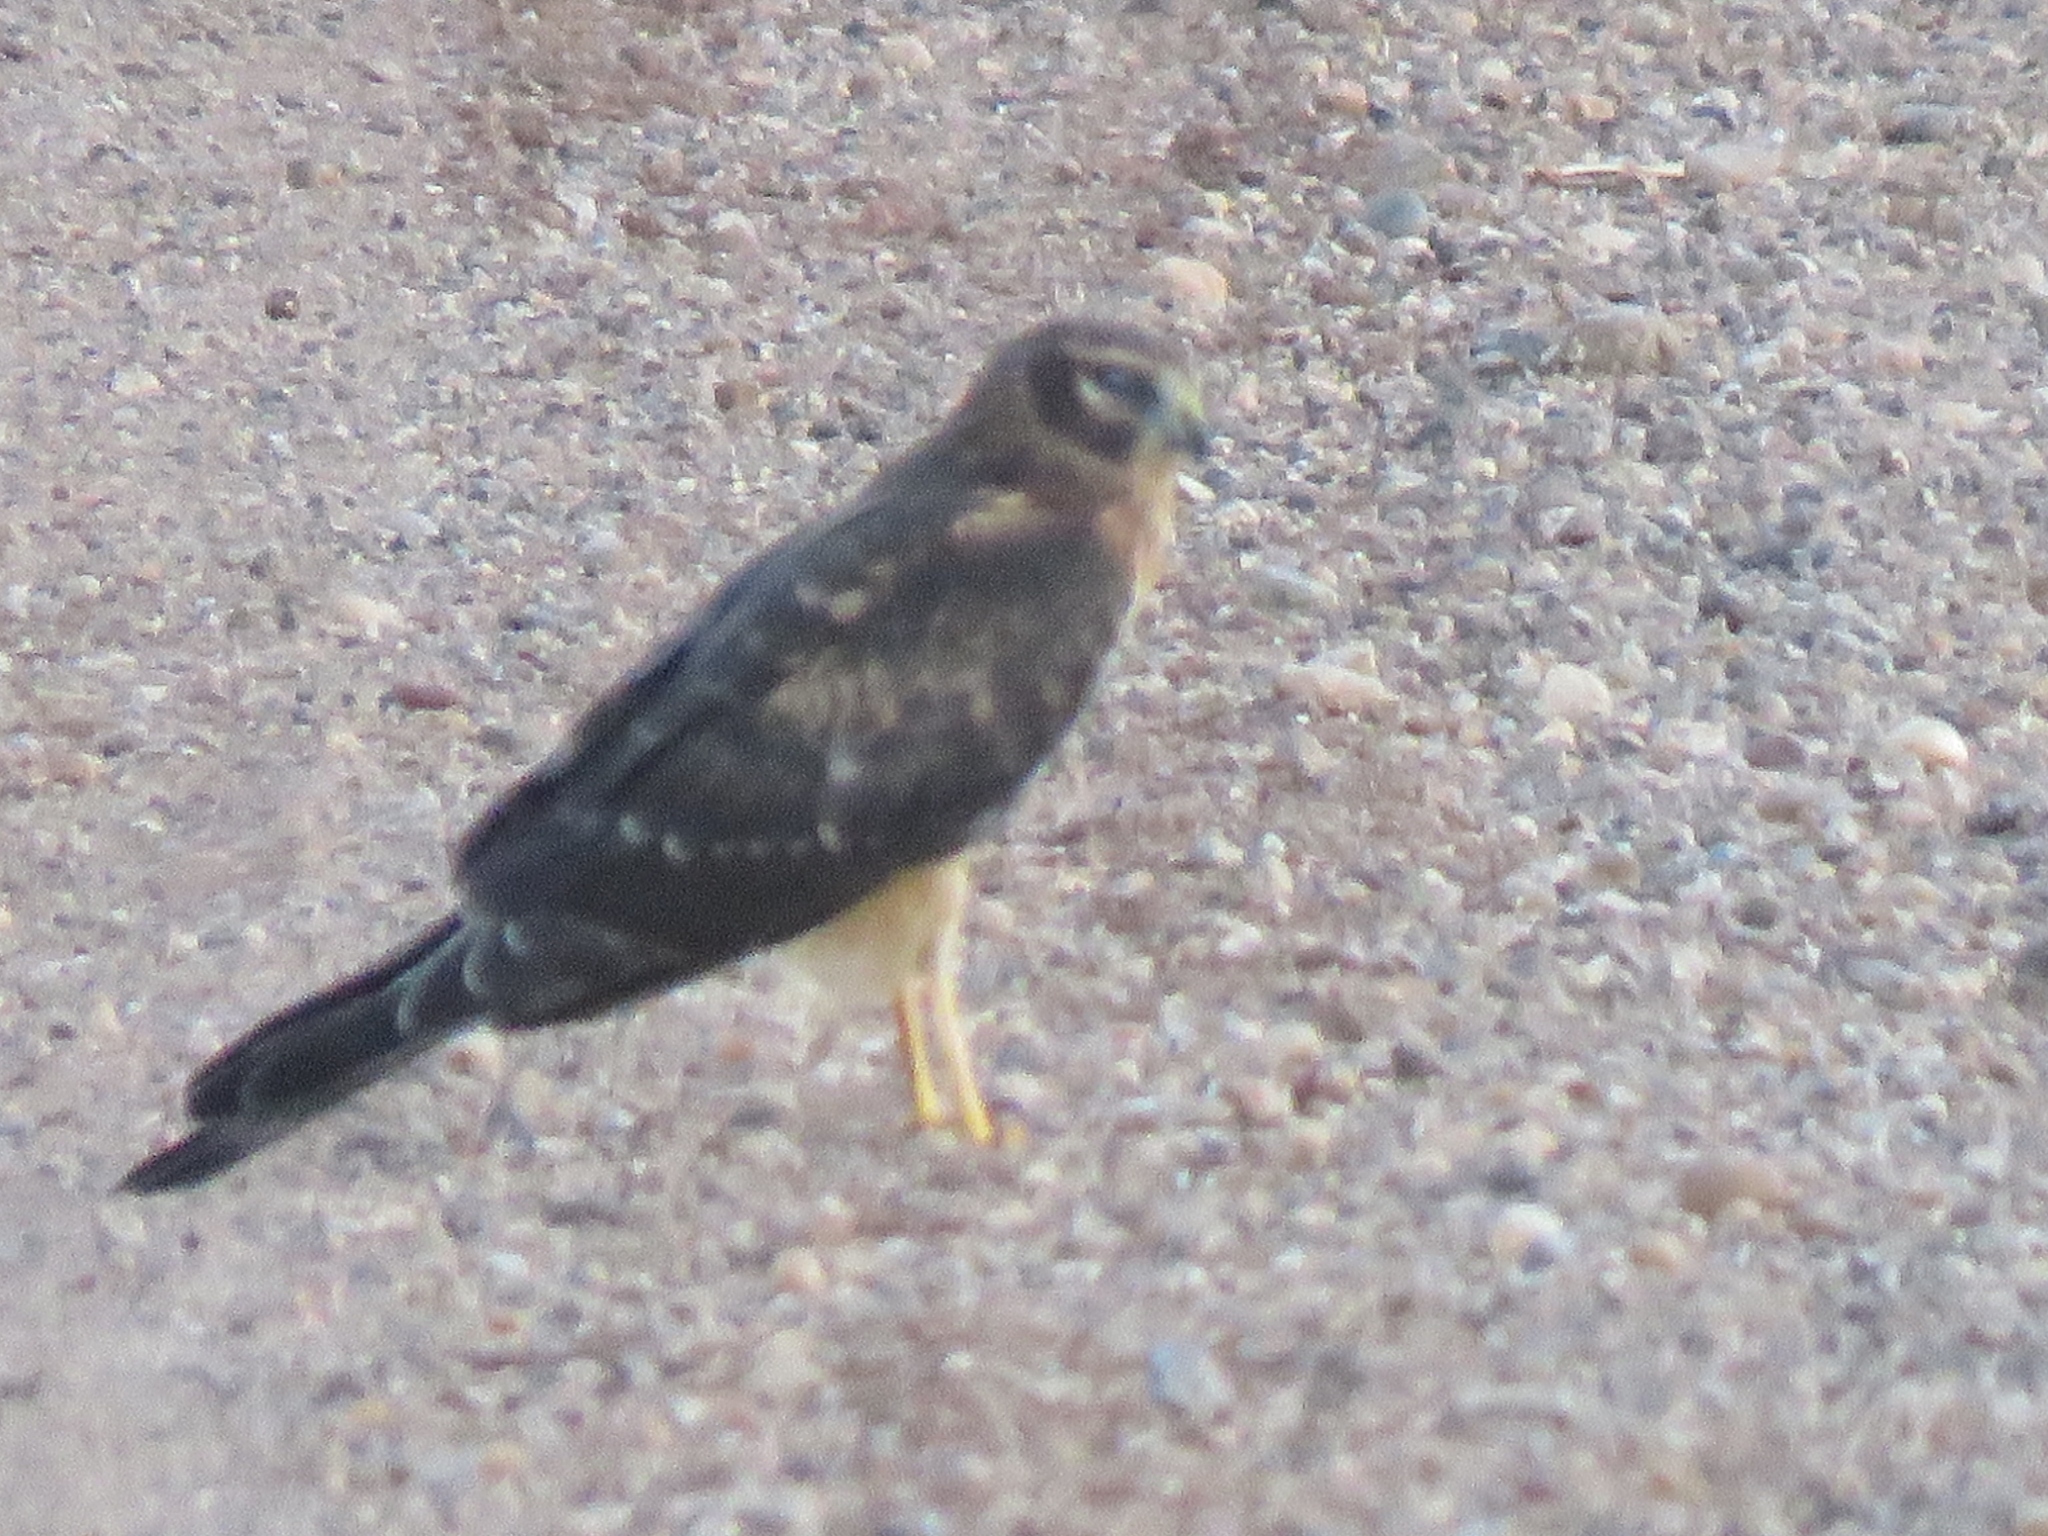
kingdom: Animalia
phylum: Chordata
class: Aves
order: Accipitriformes
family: Accipitridae
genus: Circus
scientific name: Circus cyaneus
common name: Hen harrier
